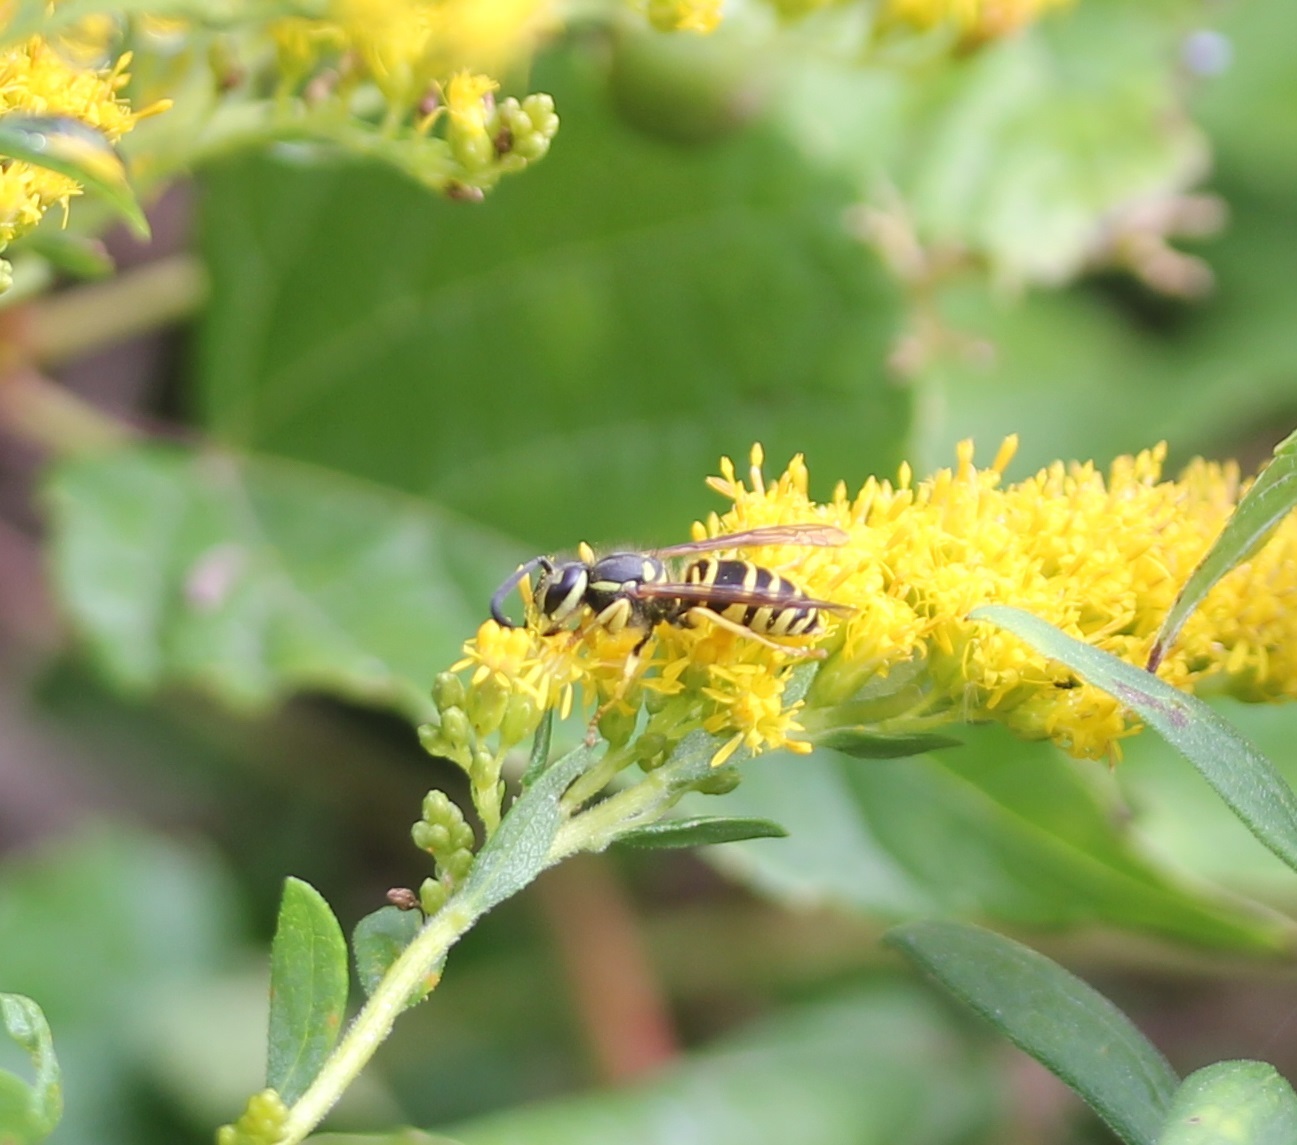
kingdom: Animalia
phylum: Arthropoda
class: Insecta
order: Hymenoptera
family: Vespidae
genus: Vespula
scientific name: Vespula maculifrons
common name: Eastern yellowjacket
